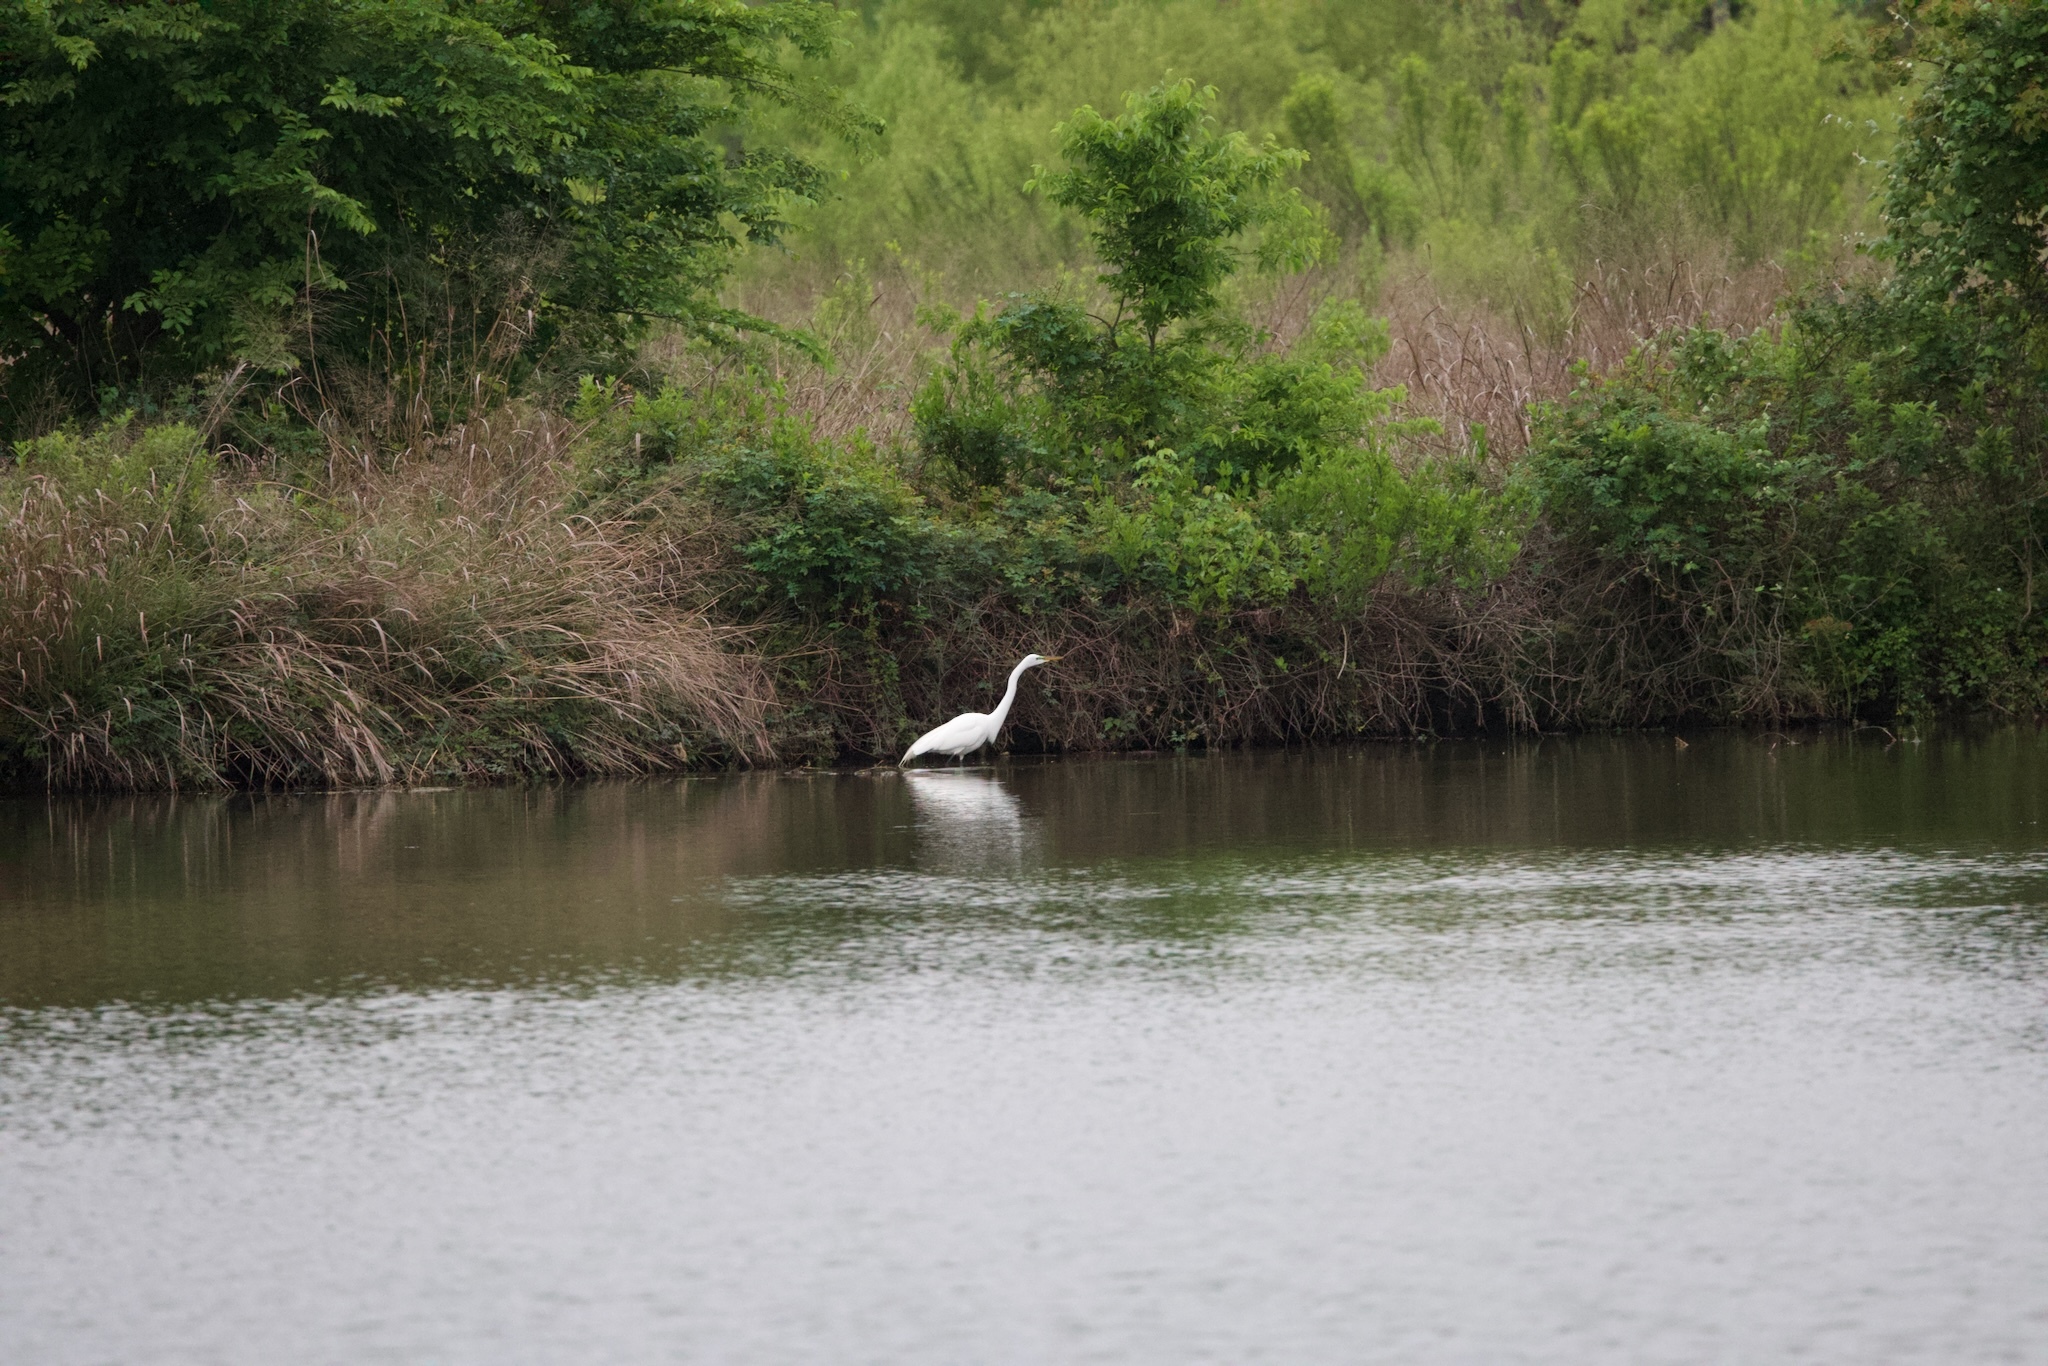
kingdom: Animalia
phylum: Chordata
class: Aves
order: Pelecaniformes
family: Ardeidae
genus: Ardea
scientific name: Ardea alba
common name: Great egret
